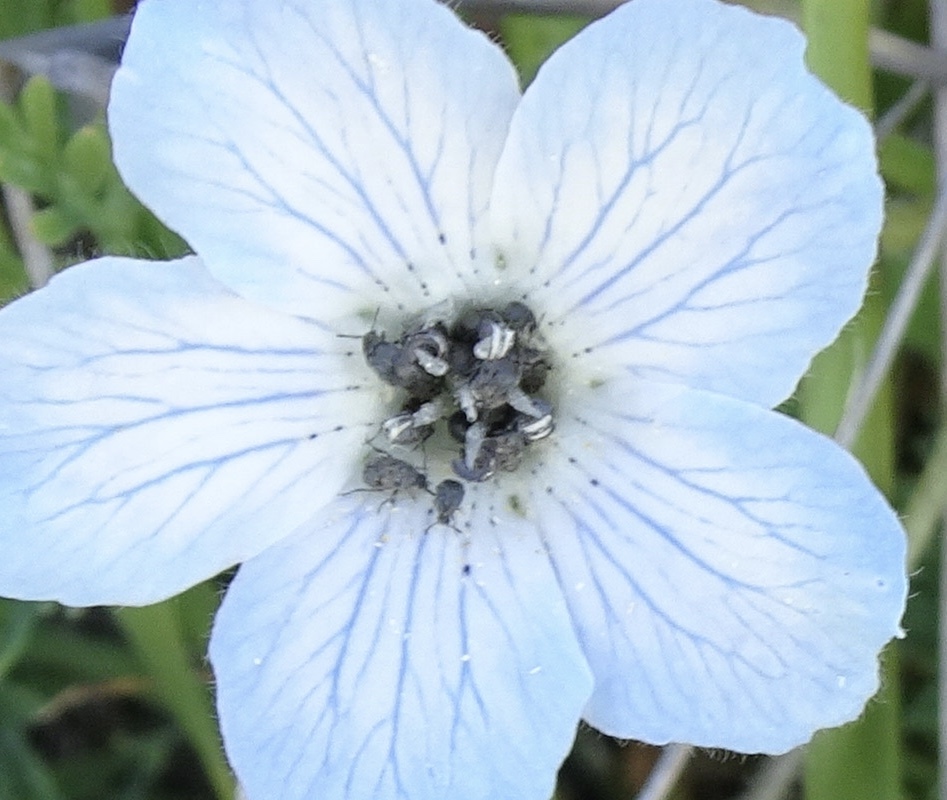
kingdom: Plantae
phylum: Tracheophyta
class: Magnoliopsida
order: Boraginales
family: Hydrophyllaceae
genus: Nemophila
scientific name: Nemophila menziesii
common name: Baby's-blue-eyes
